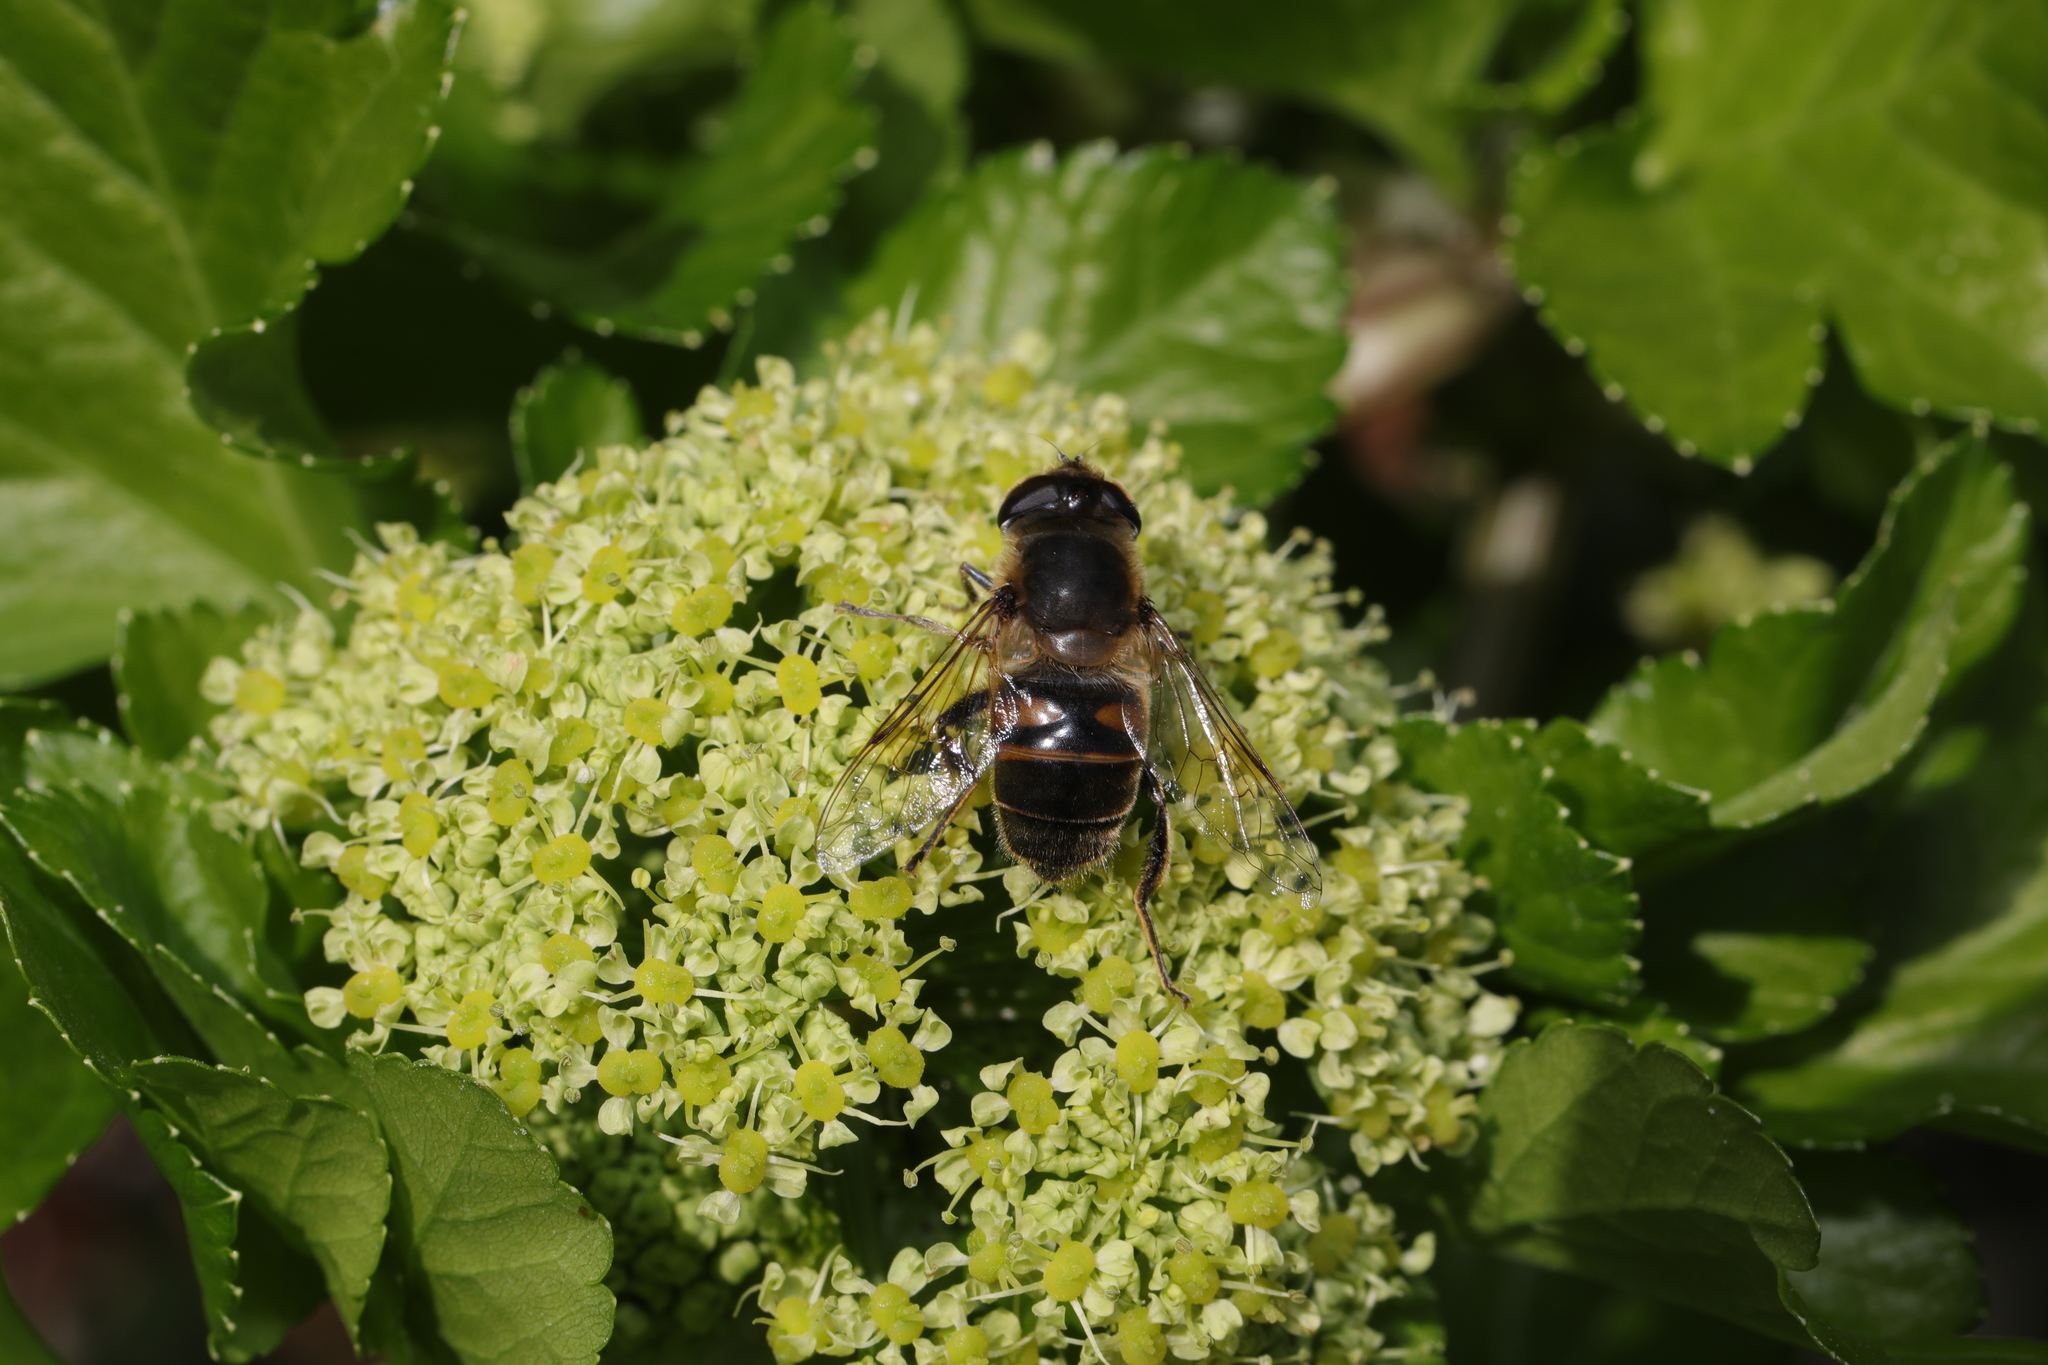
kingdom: Animalia
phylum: Arthropoda
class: Insecta
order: Diptera
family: Syrphidae
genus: Eristalis
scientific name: Eristalis tenax
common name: Drone fly
